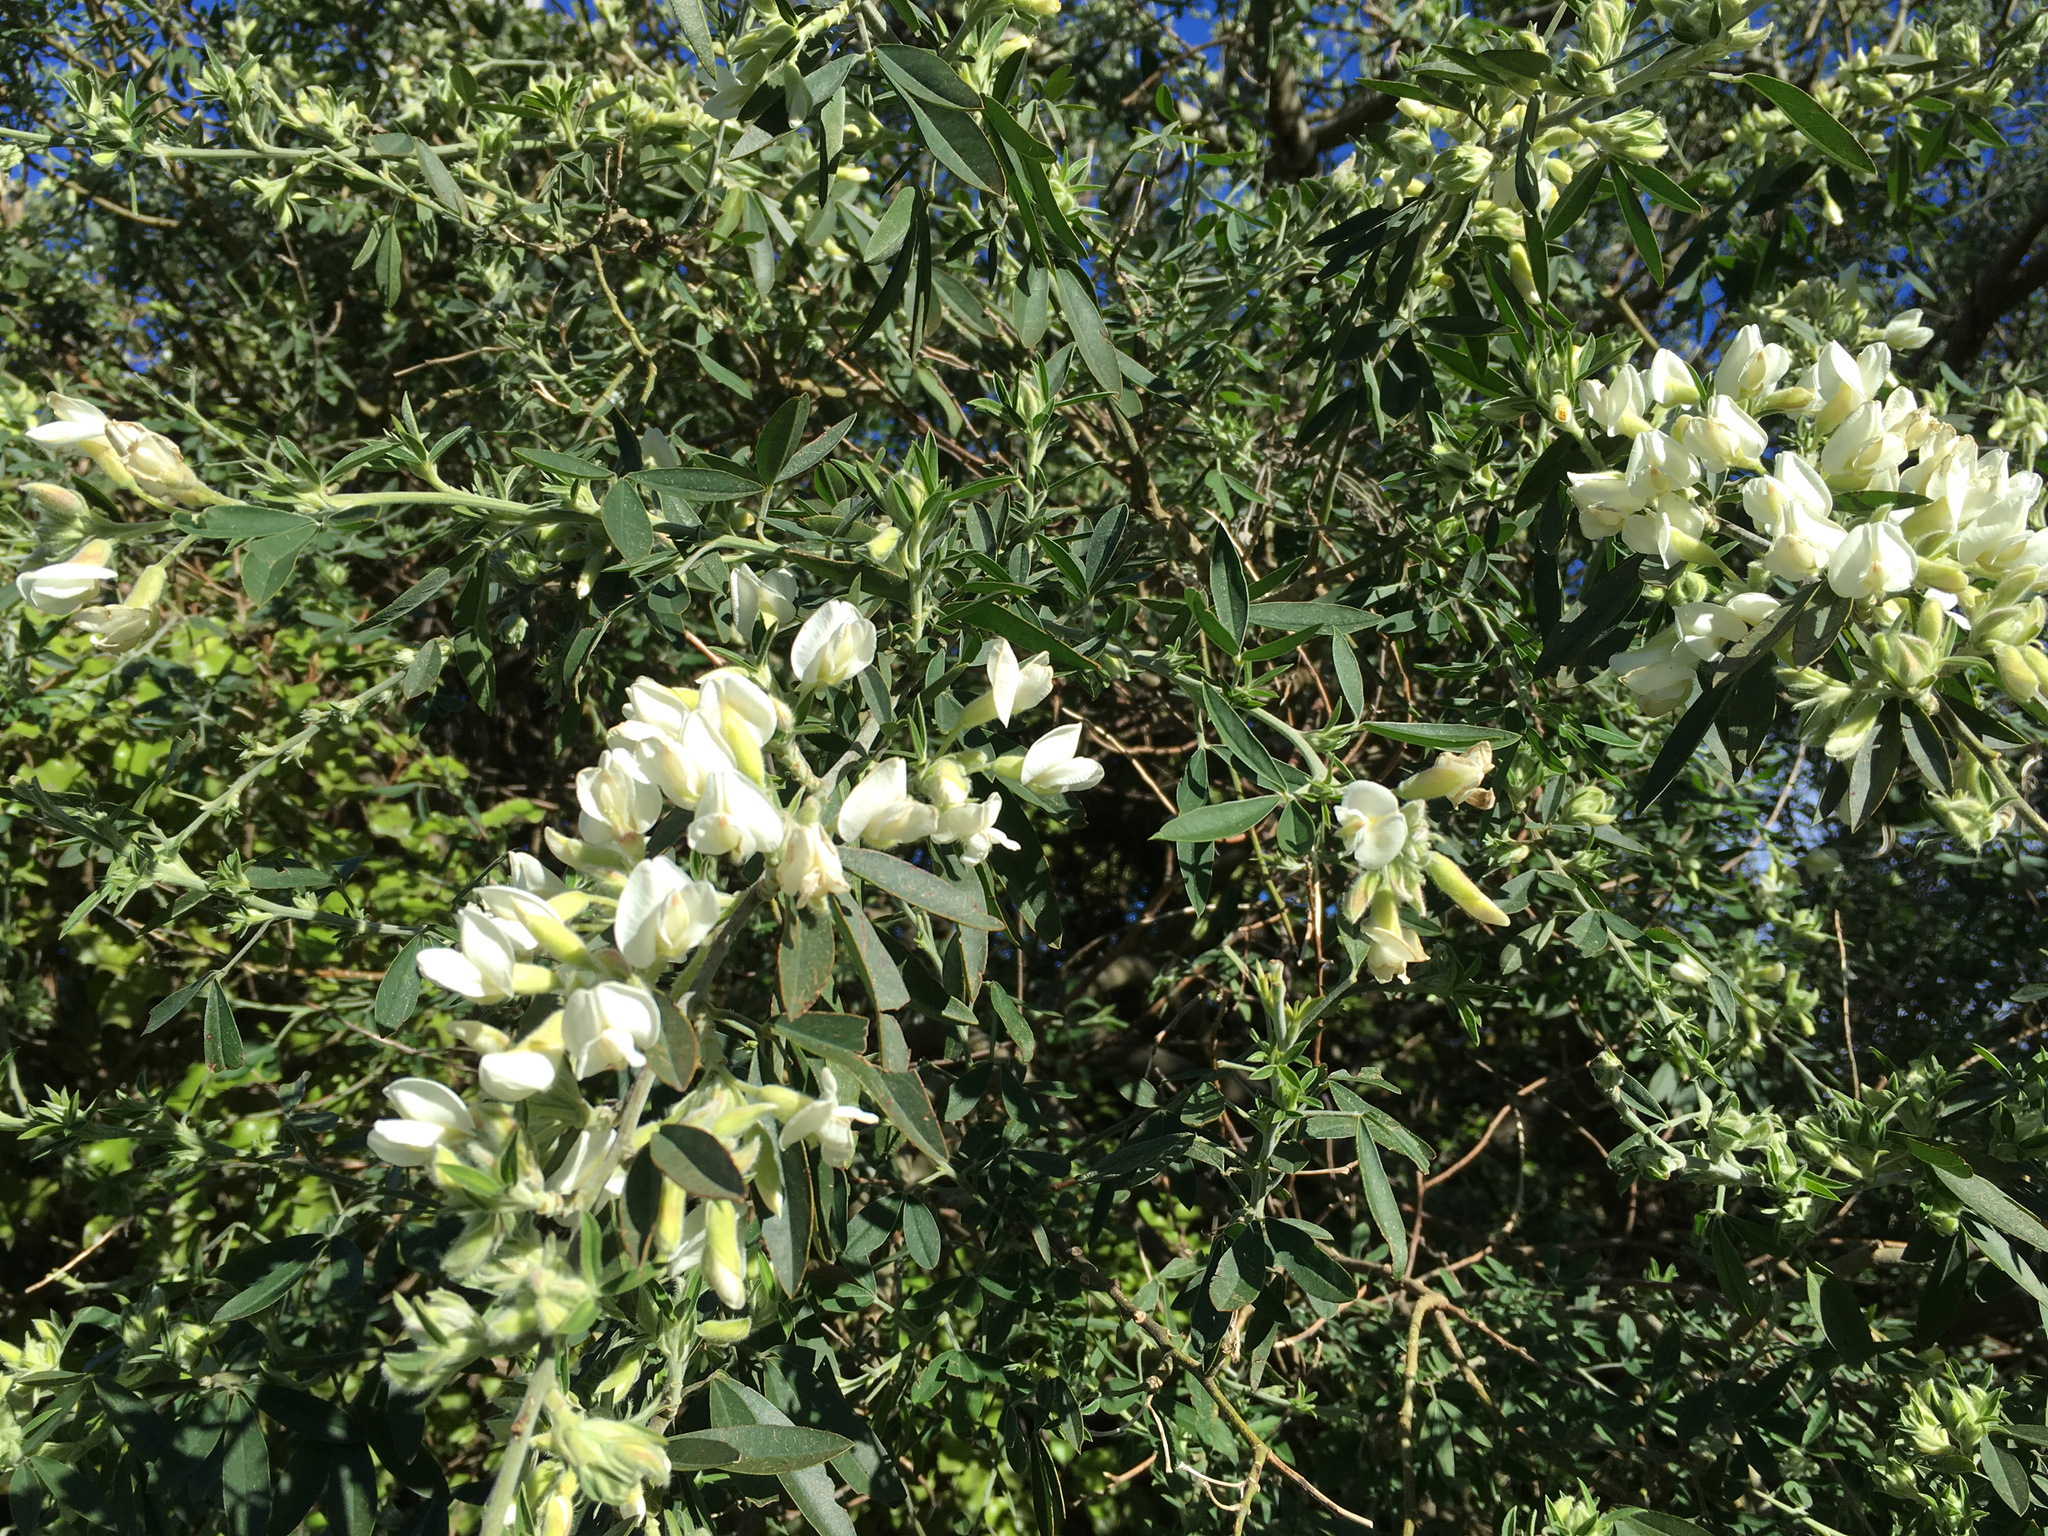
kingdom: Plantae
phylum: Tracheophyta
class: Magnoliopsida
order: Fabales
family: Fabaceae
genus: Chamaecytisus
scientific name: Chamaecytisus prolifer
